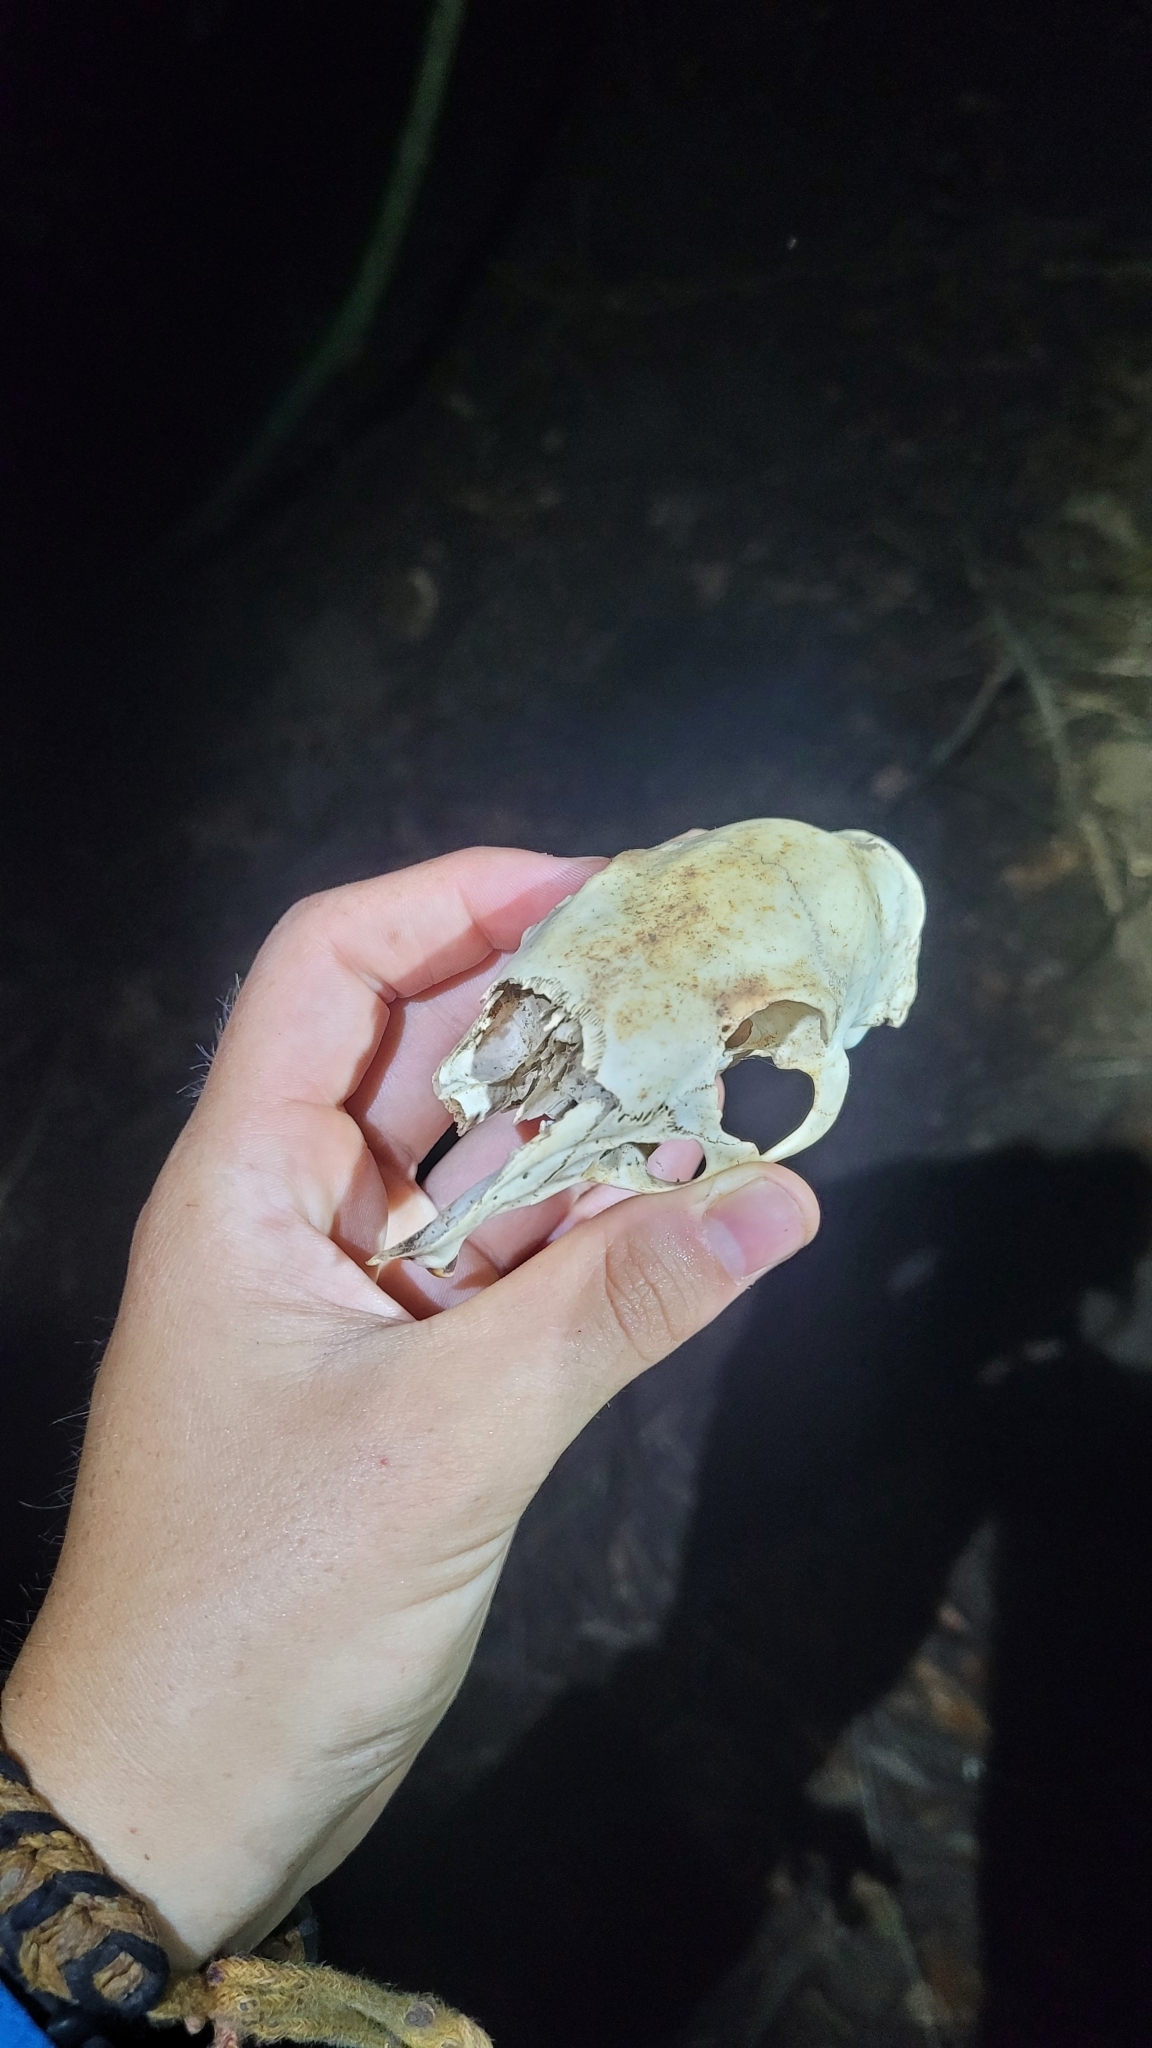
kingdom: Animalia
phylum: Chordata
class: Mammalia
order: Rodentia
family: Dasyproctidae
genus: Dasyprocta
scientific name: Dasyprocta ruatanica
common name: Roatán island agouti
